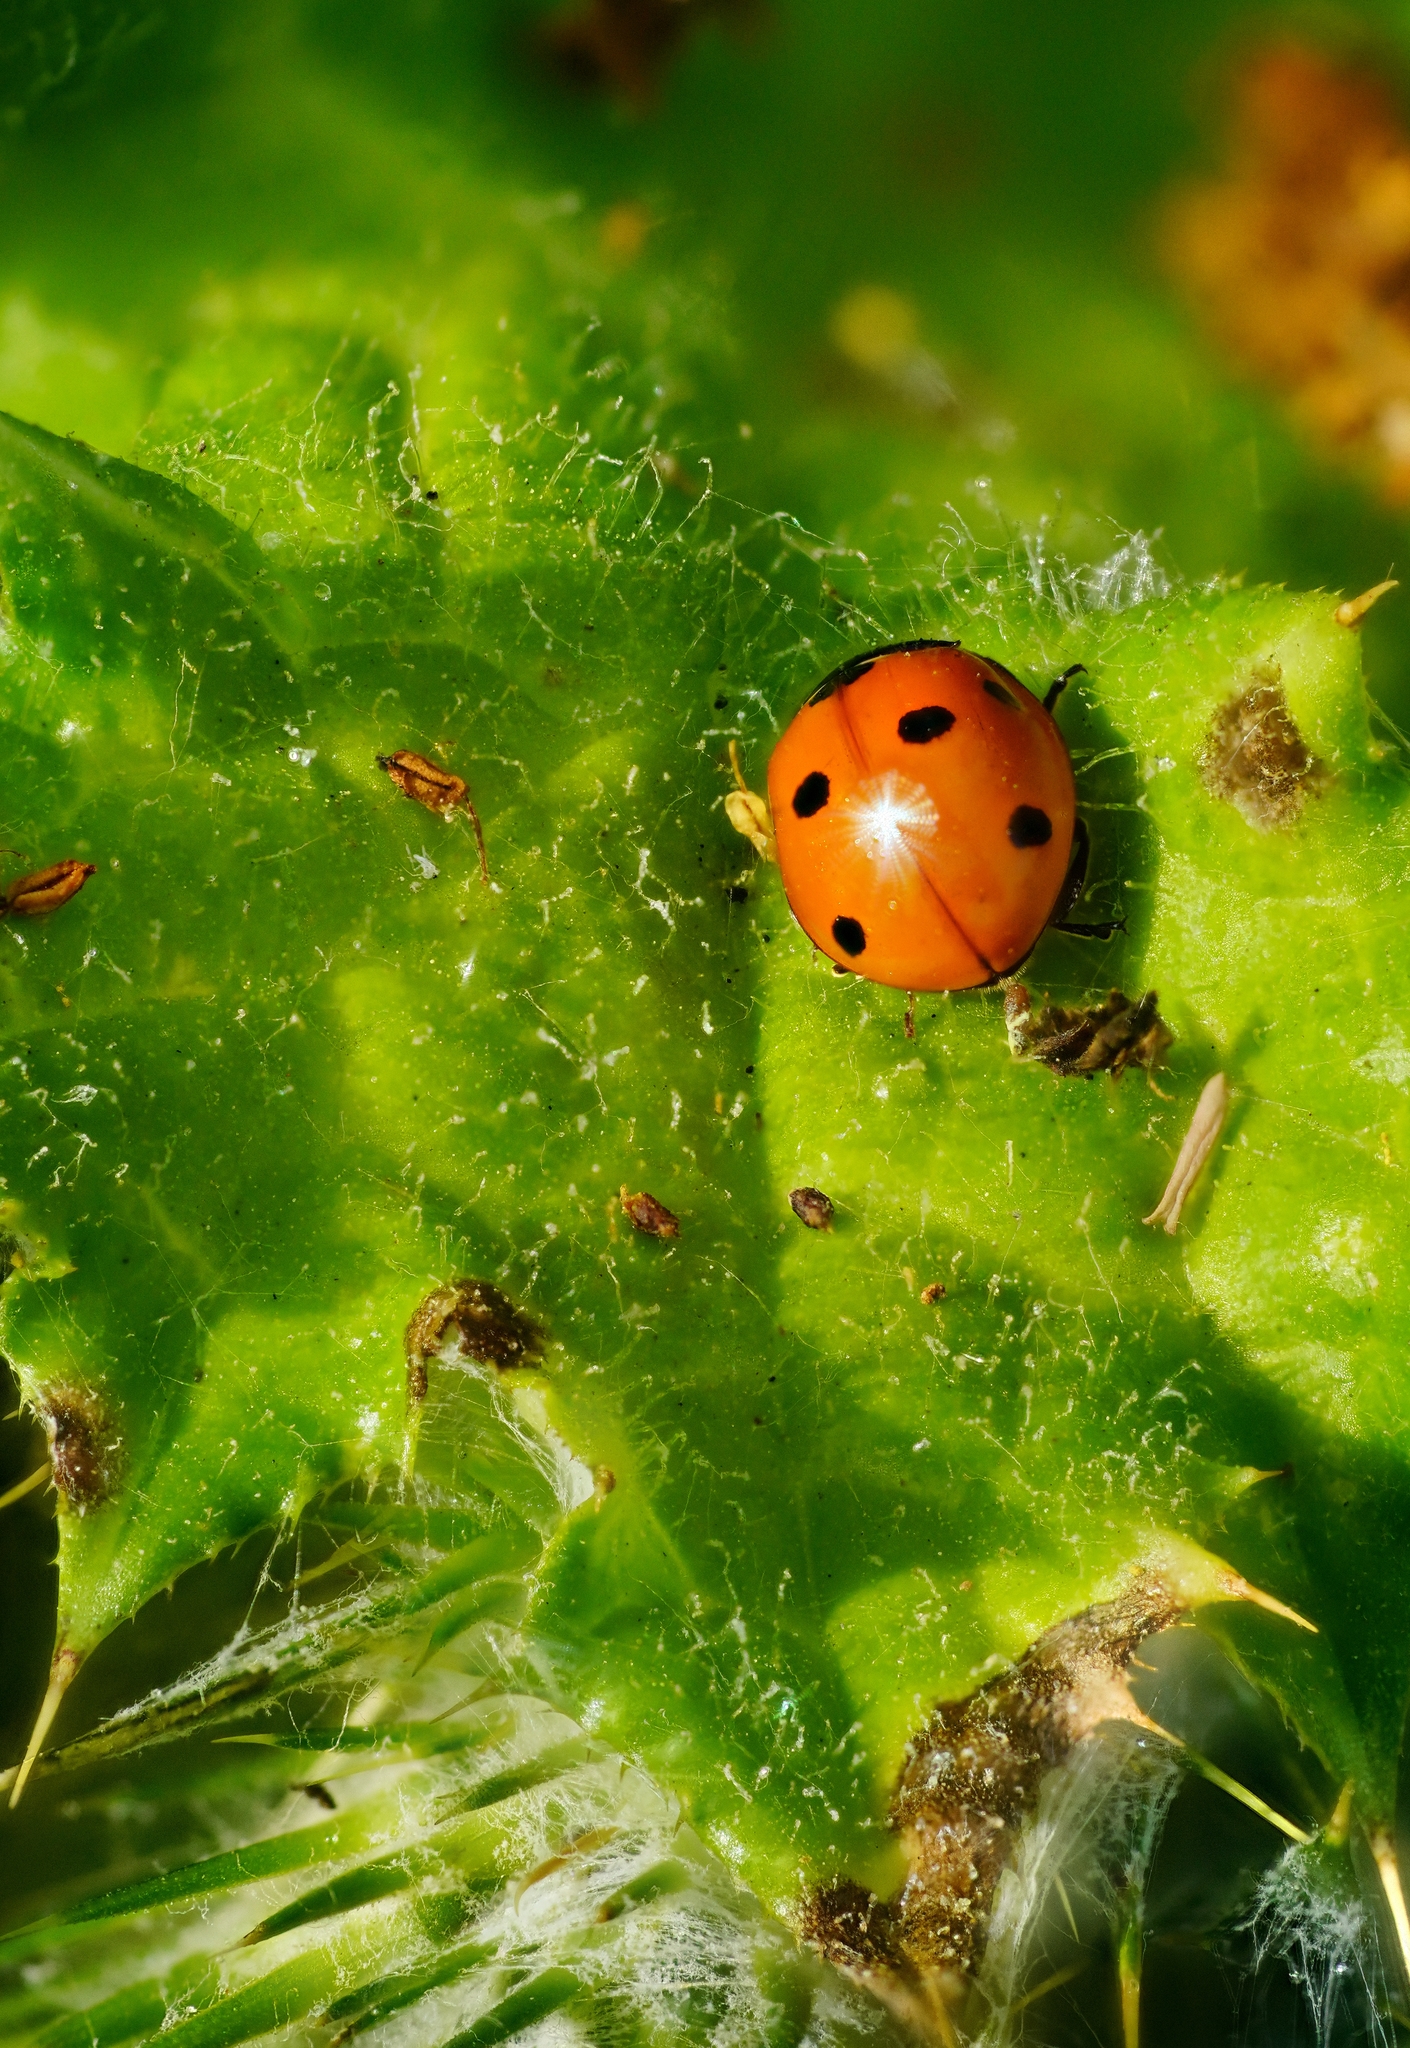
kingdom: Animalia
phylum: Arthropoda
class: Insecta
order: Coleoptera
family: Coccinellidae
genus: Coccinella
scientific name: Coccinella septempunctata
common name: Sevenspotted lady beetle
